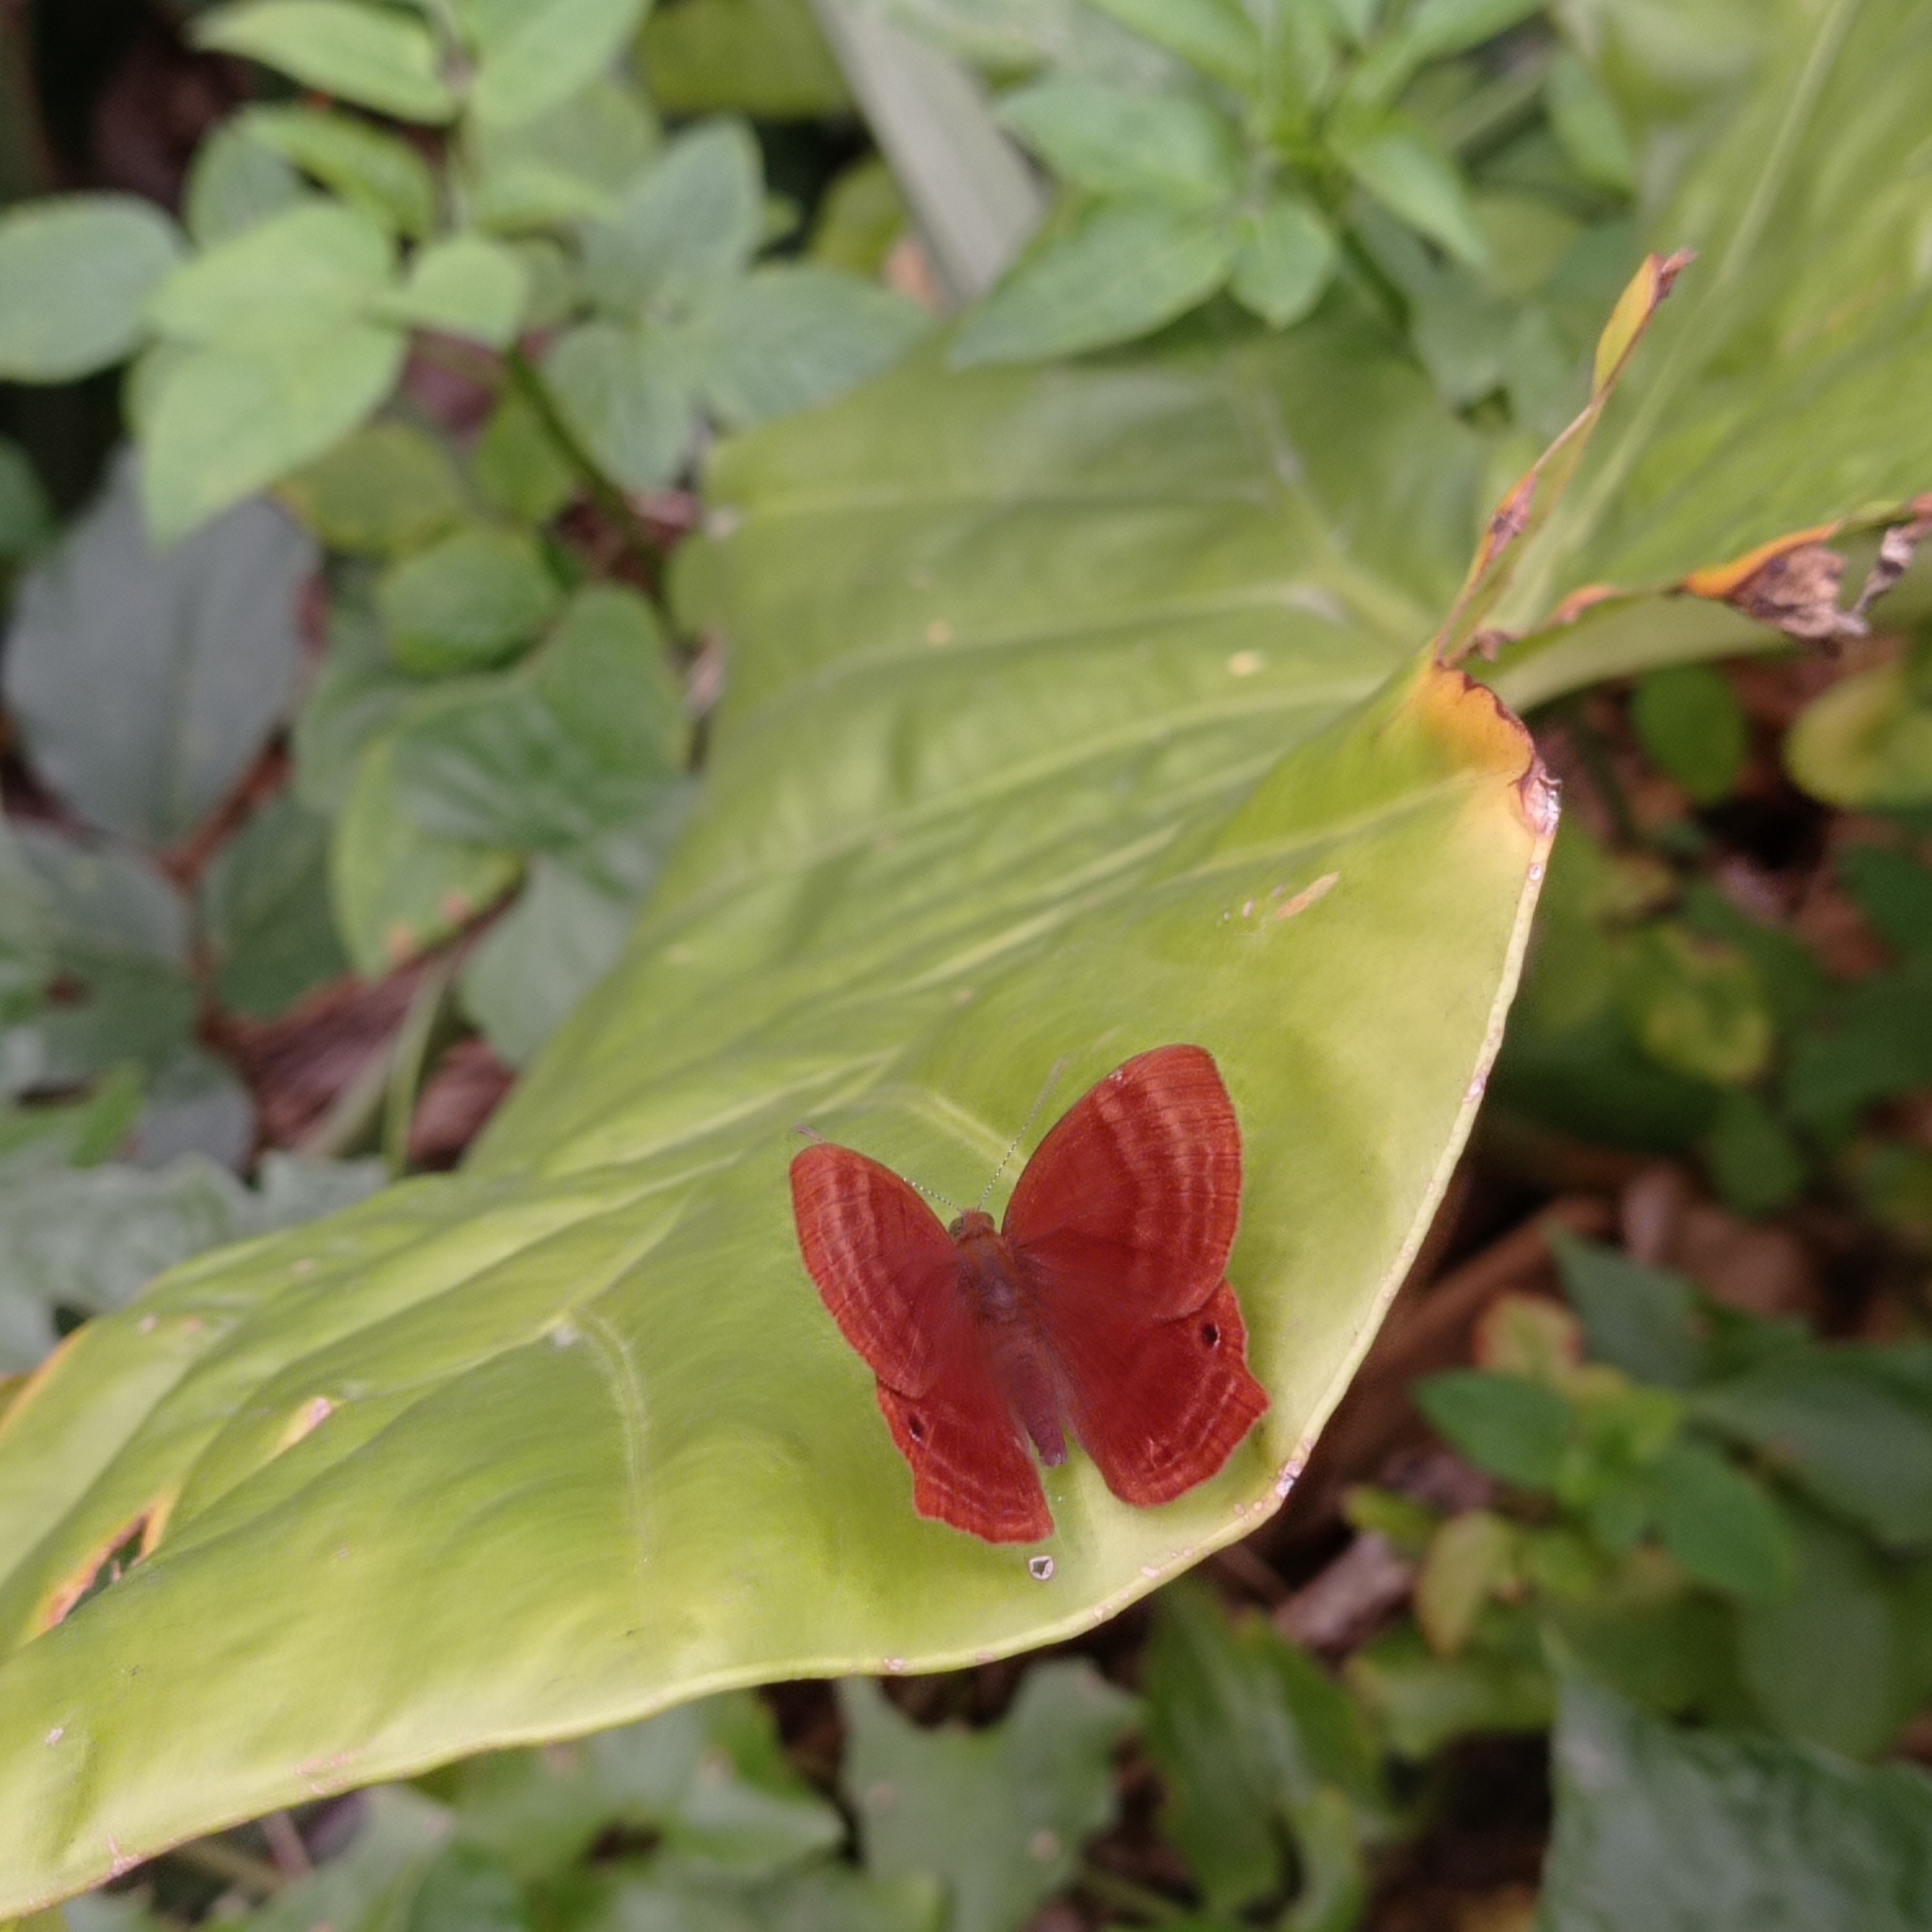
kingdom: Animalia
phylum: Arthropoda
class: Insecta
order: Lepidoptera
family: Lycaenidae
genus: Abisara
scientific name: Abisara echeria
